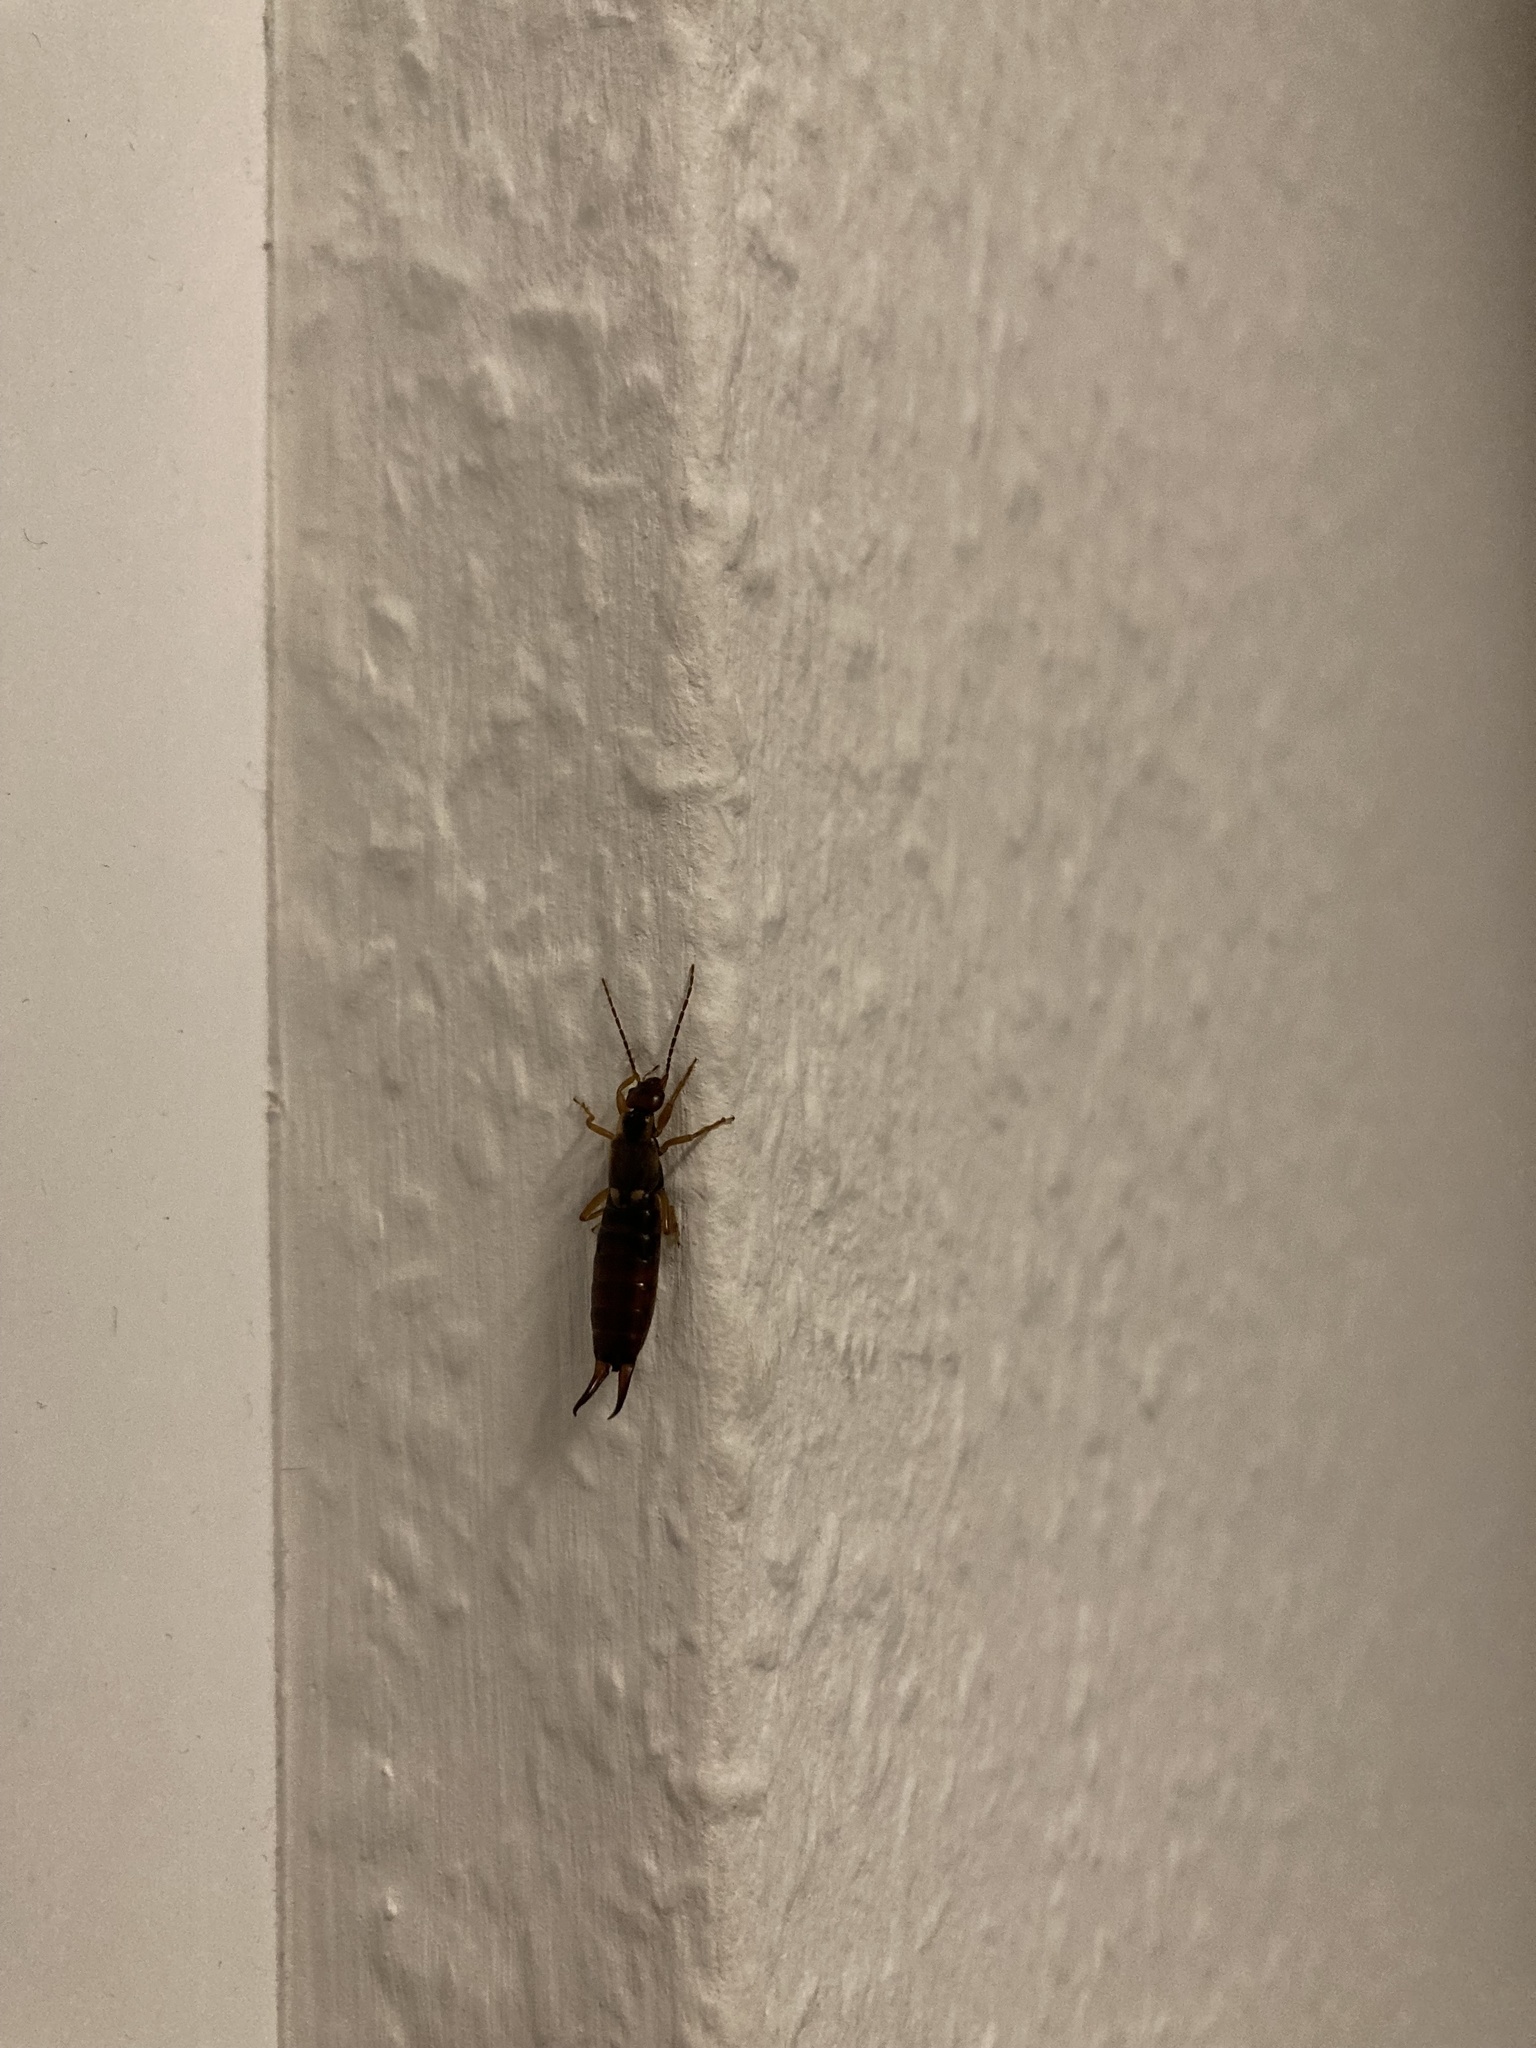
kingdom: Animalia
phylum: Arthropoda
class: Insecta
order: Dermaptera
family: Forficulidae
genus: Forficula
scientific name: Forficula
